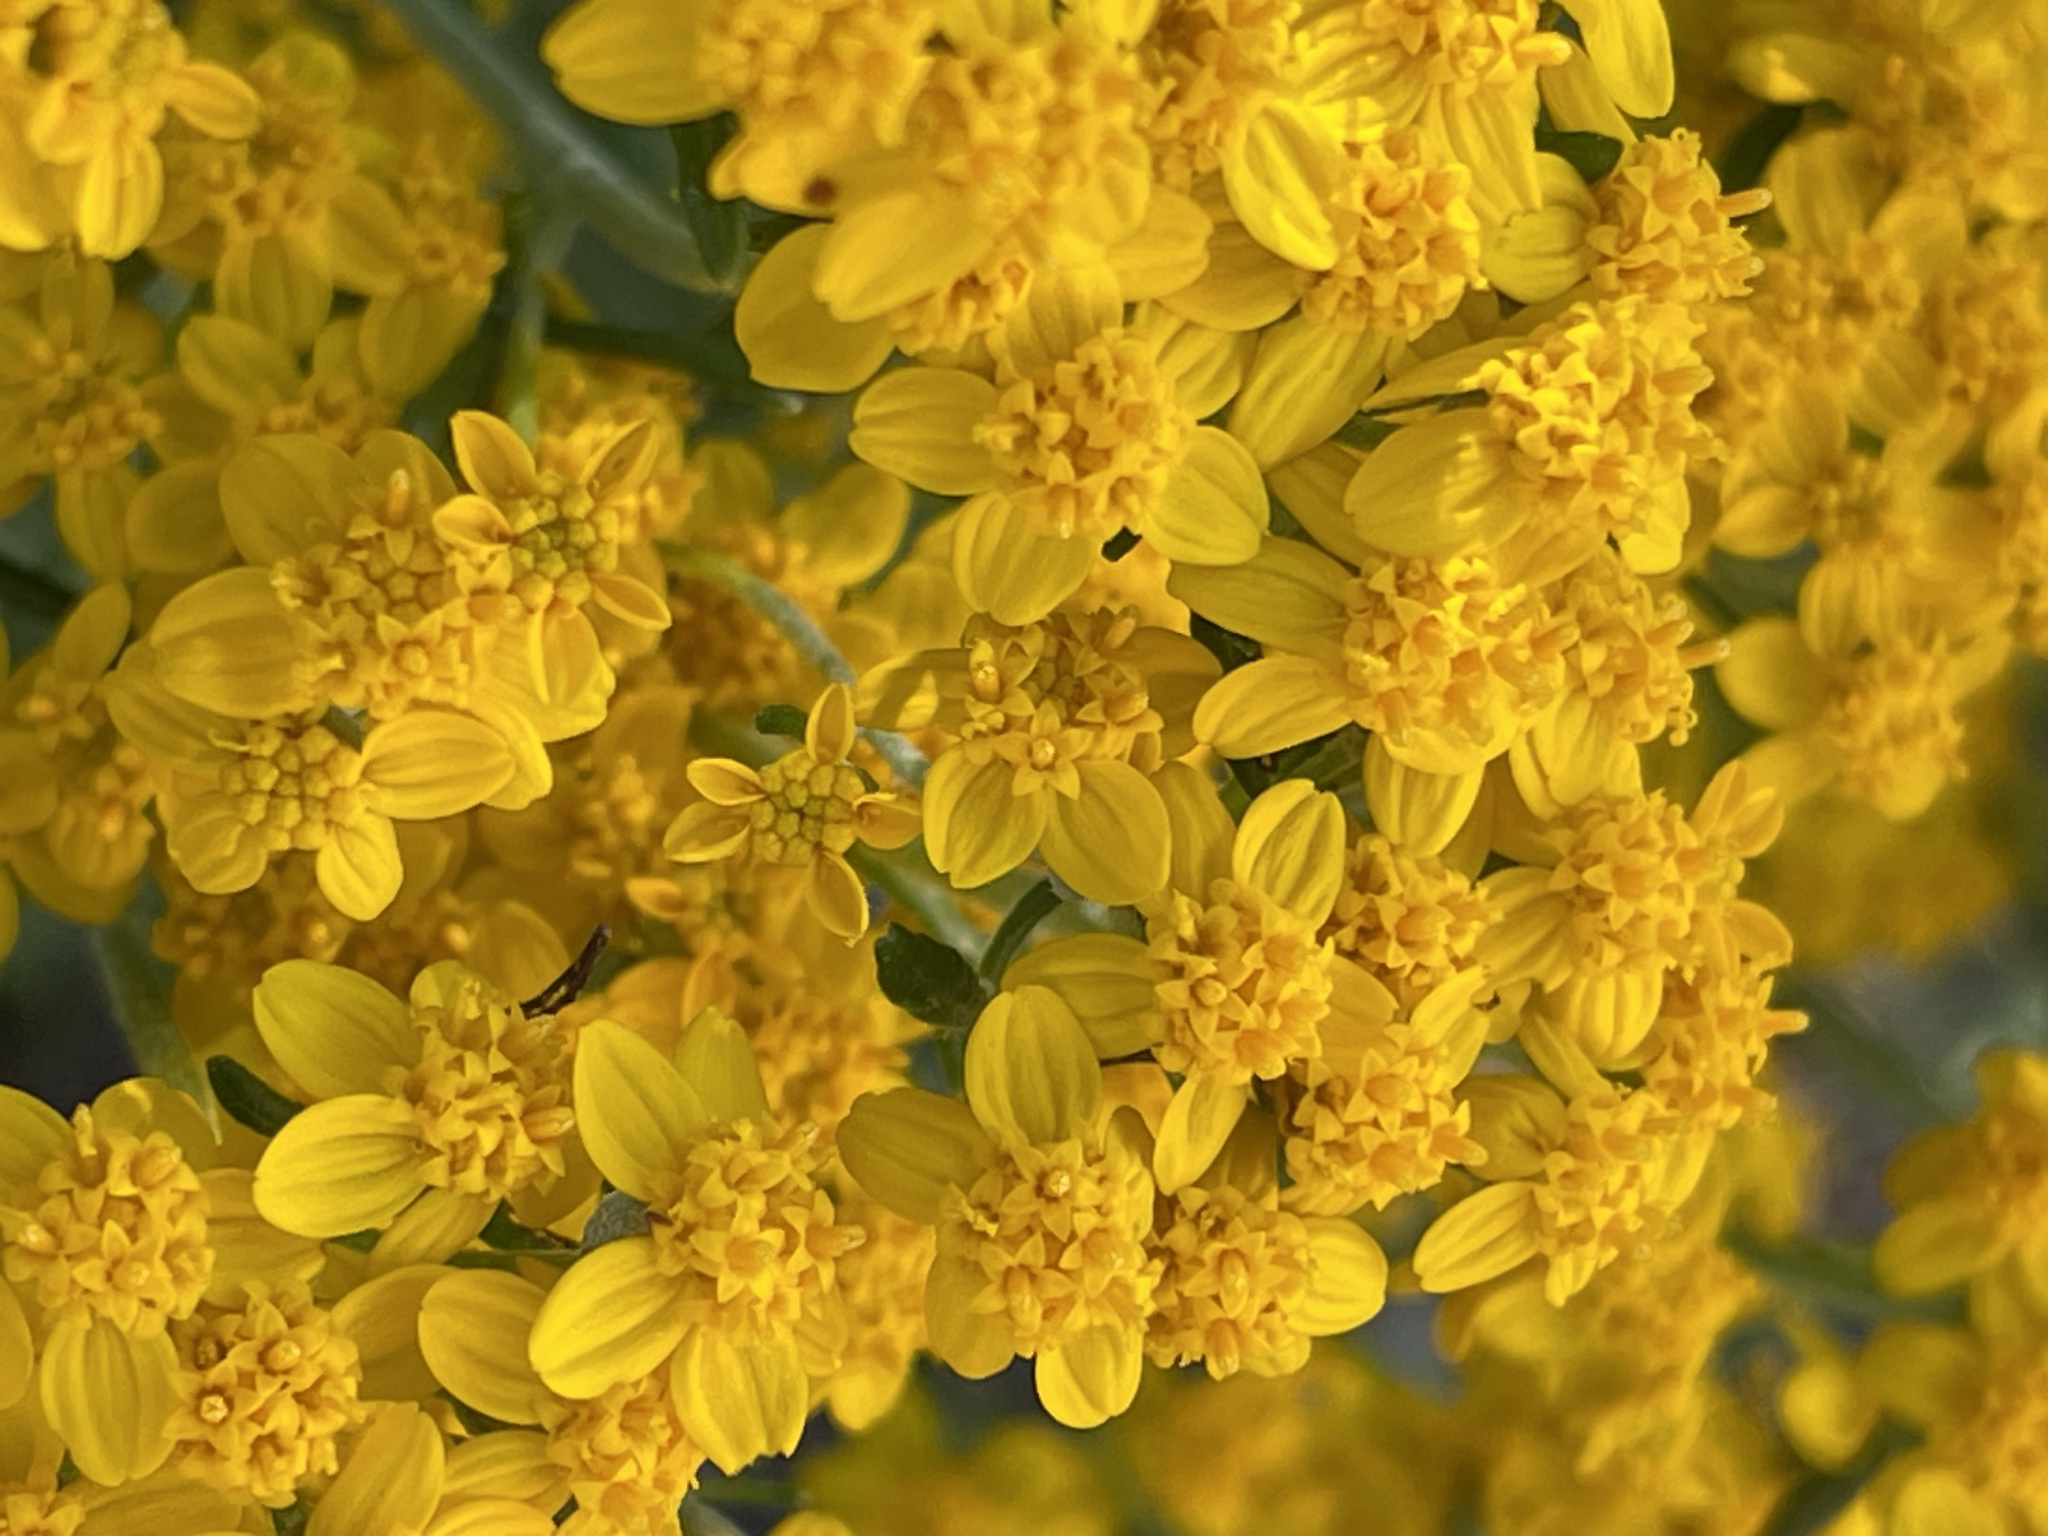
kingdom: Plantae
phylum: Tracheophyta
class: Magnoliopsida
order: Asterales
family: Asteraceae
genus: Eriophyllum
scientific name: Eriophyllum confertiflorum
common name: Golden-yarrow
